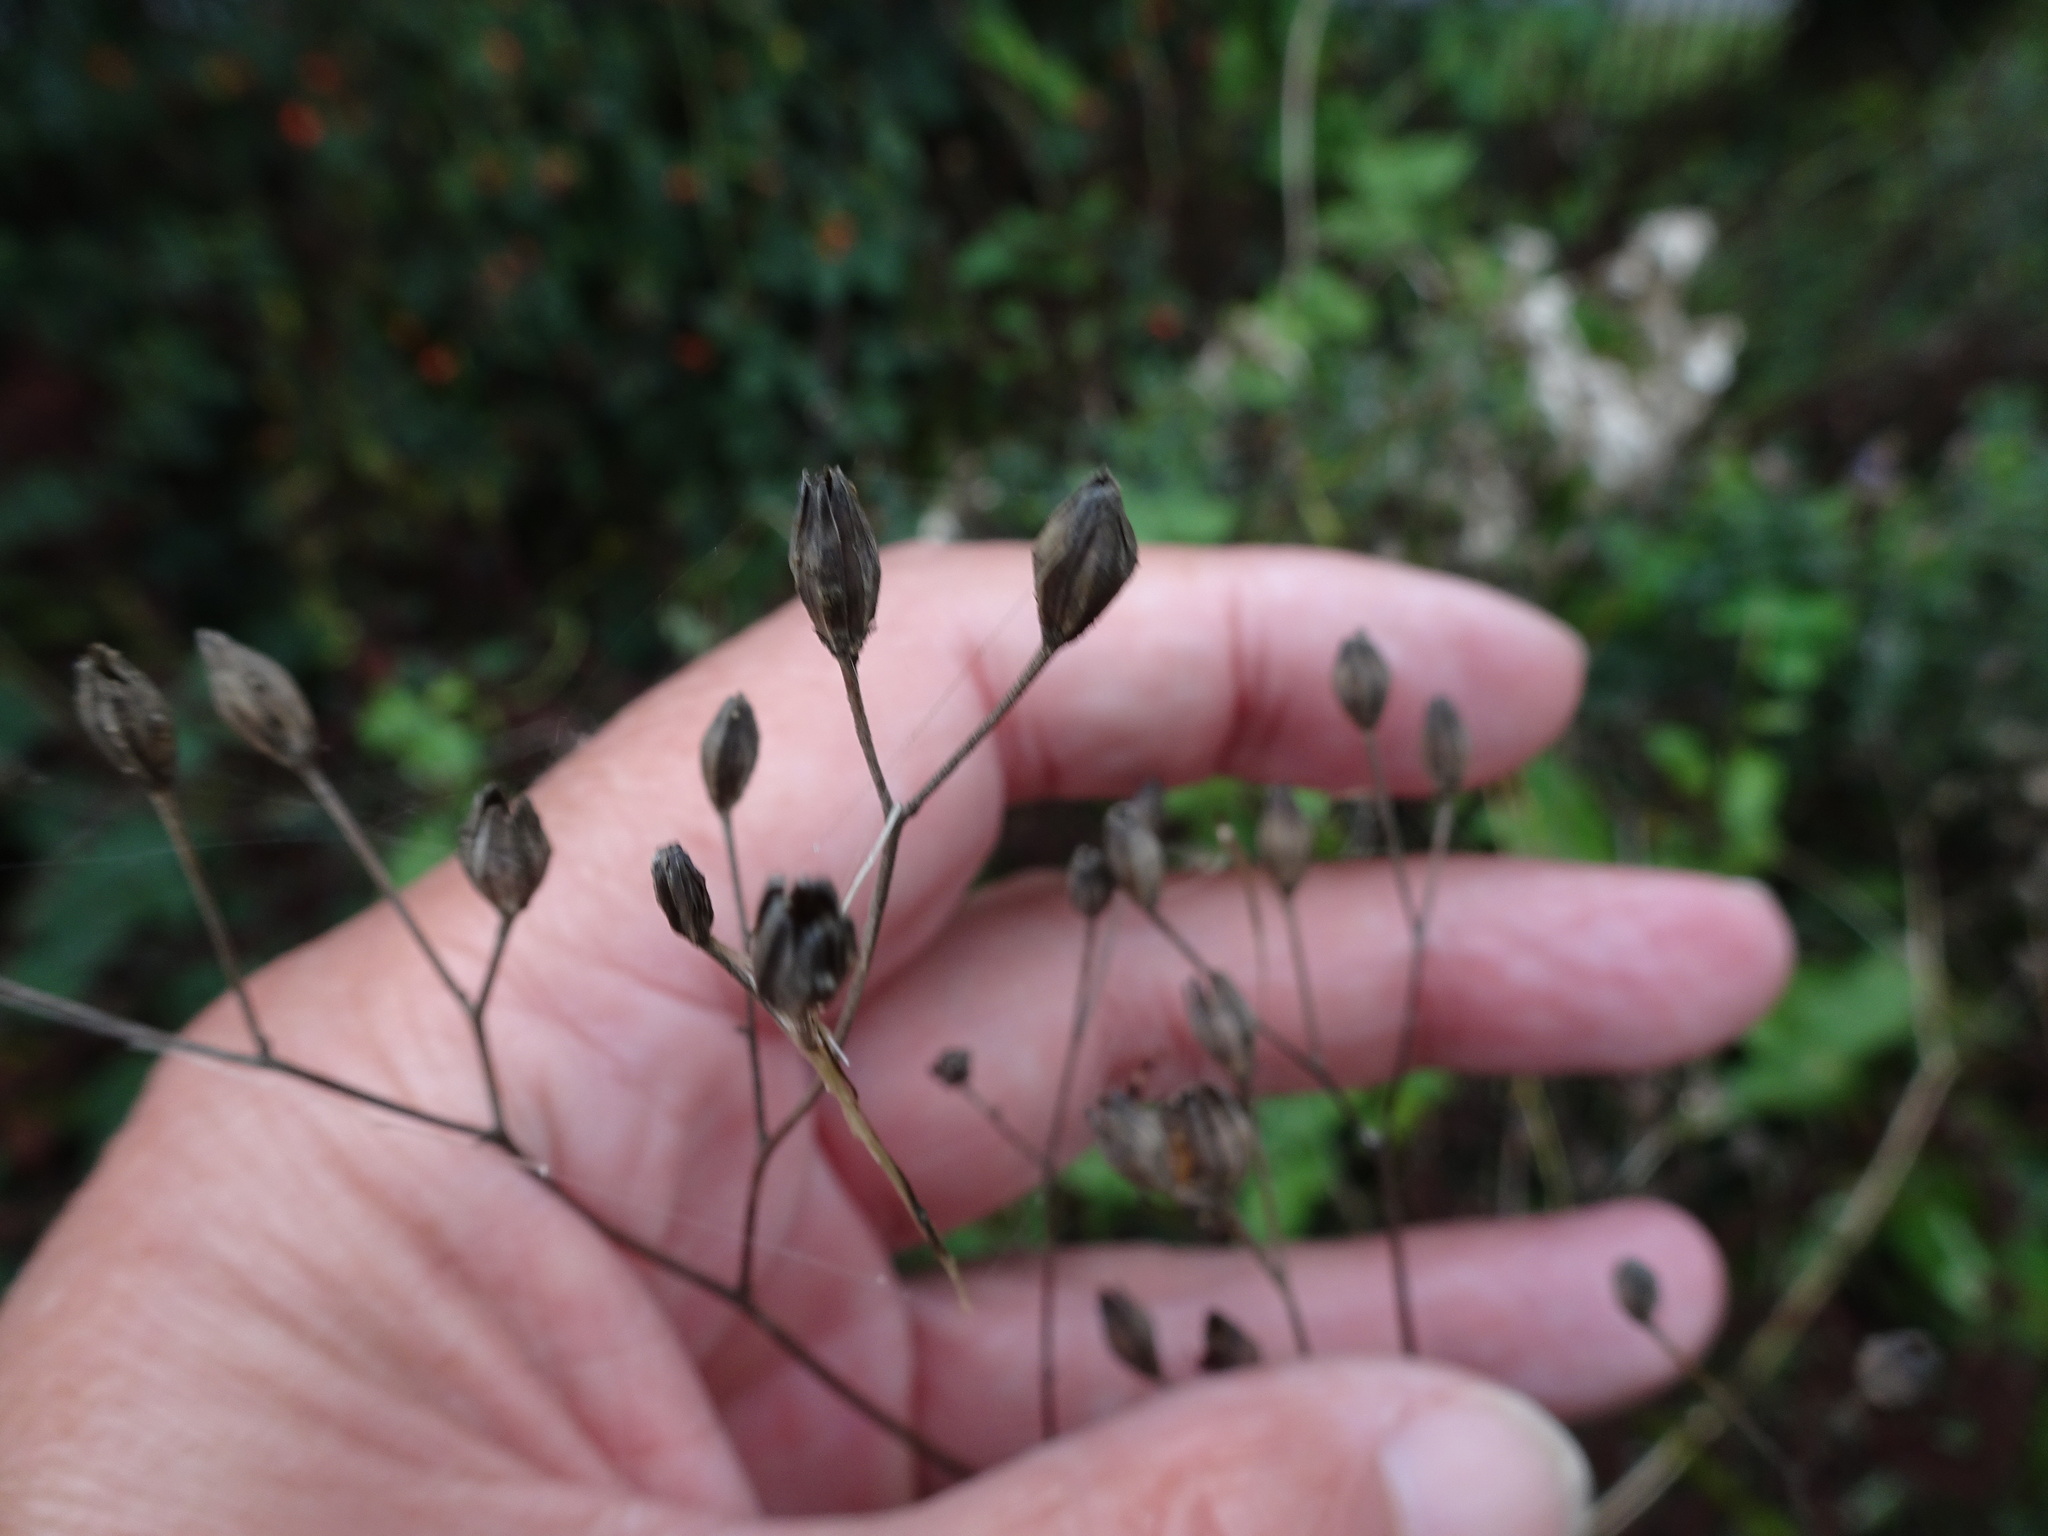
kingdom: Plantae
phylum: Tracheophyta
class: Magnoliopsida
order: Asterales
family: Asteraceae
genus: Lapsana
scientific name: Lapsana communis
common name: Nipplewort
